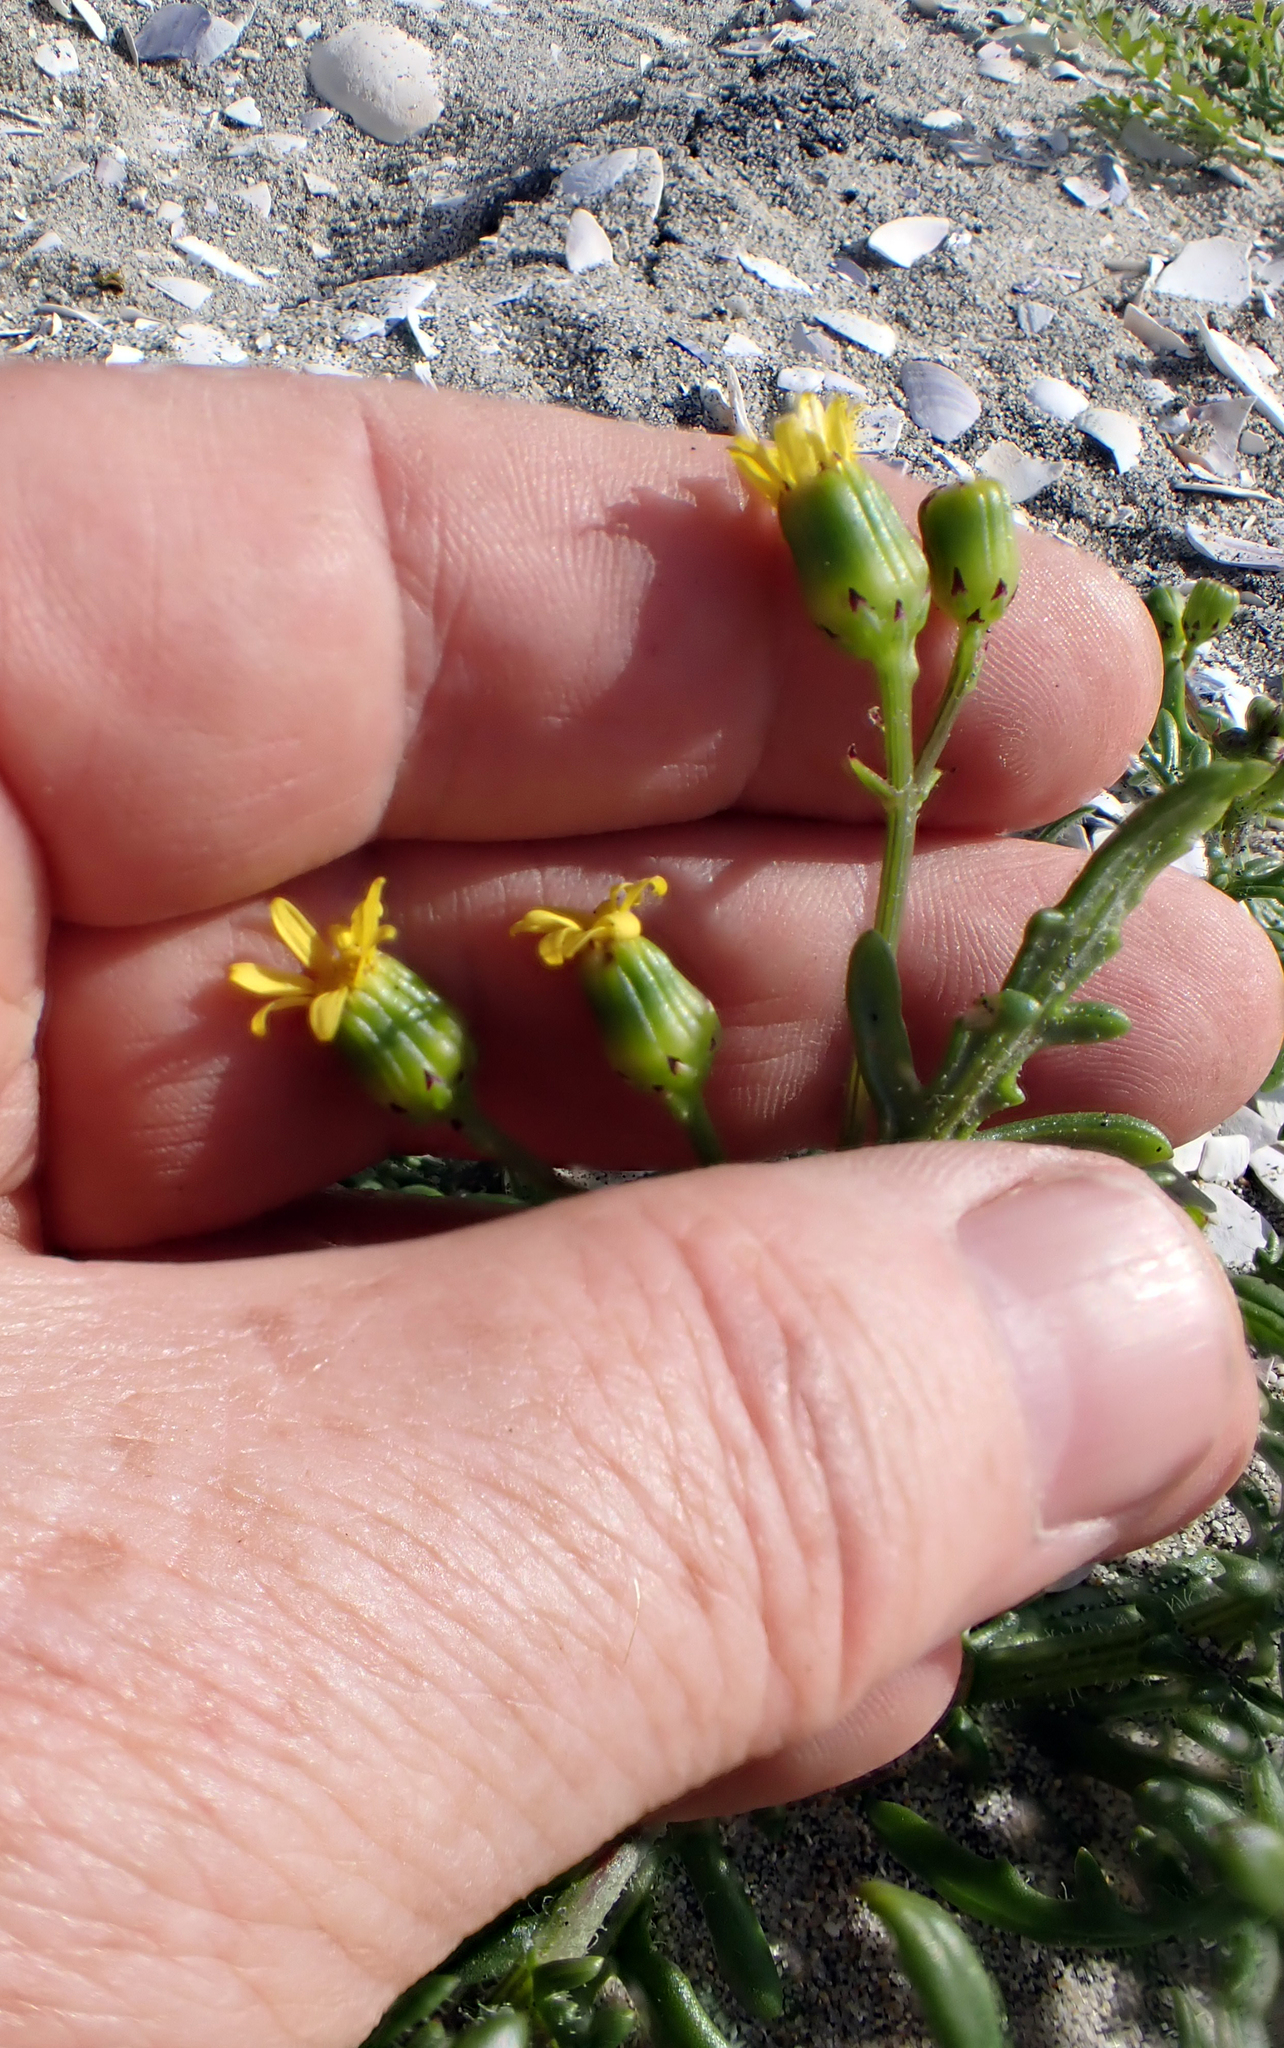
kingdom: Plantae
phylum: Tracheophyta
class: Magnoliopsida
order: Asterales
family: Asteraceae
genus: Senecio
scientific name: Senecio lautus
